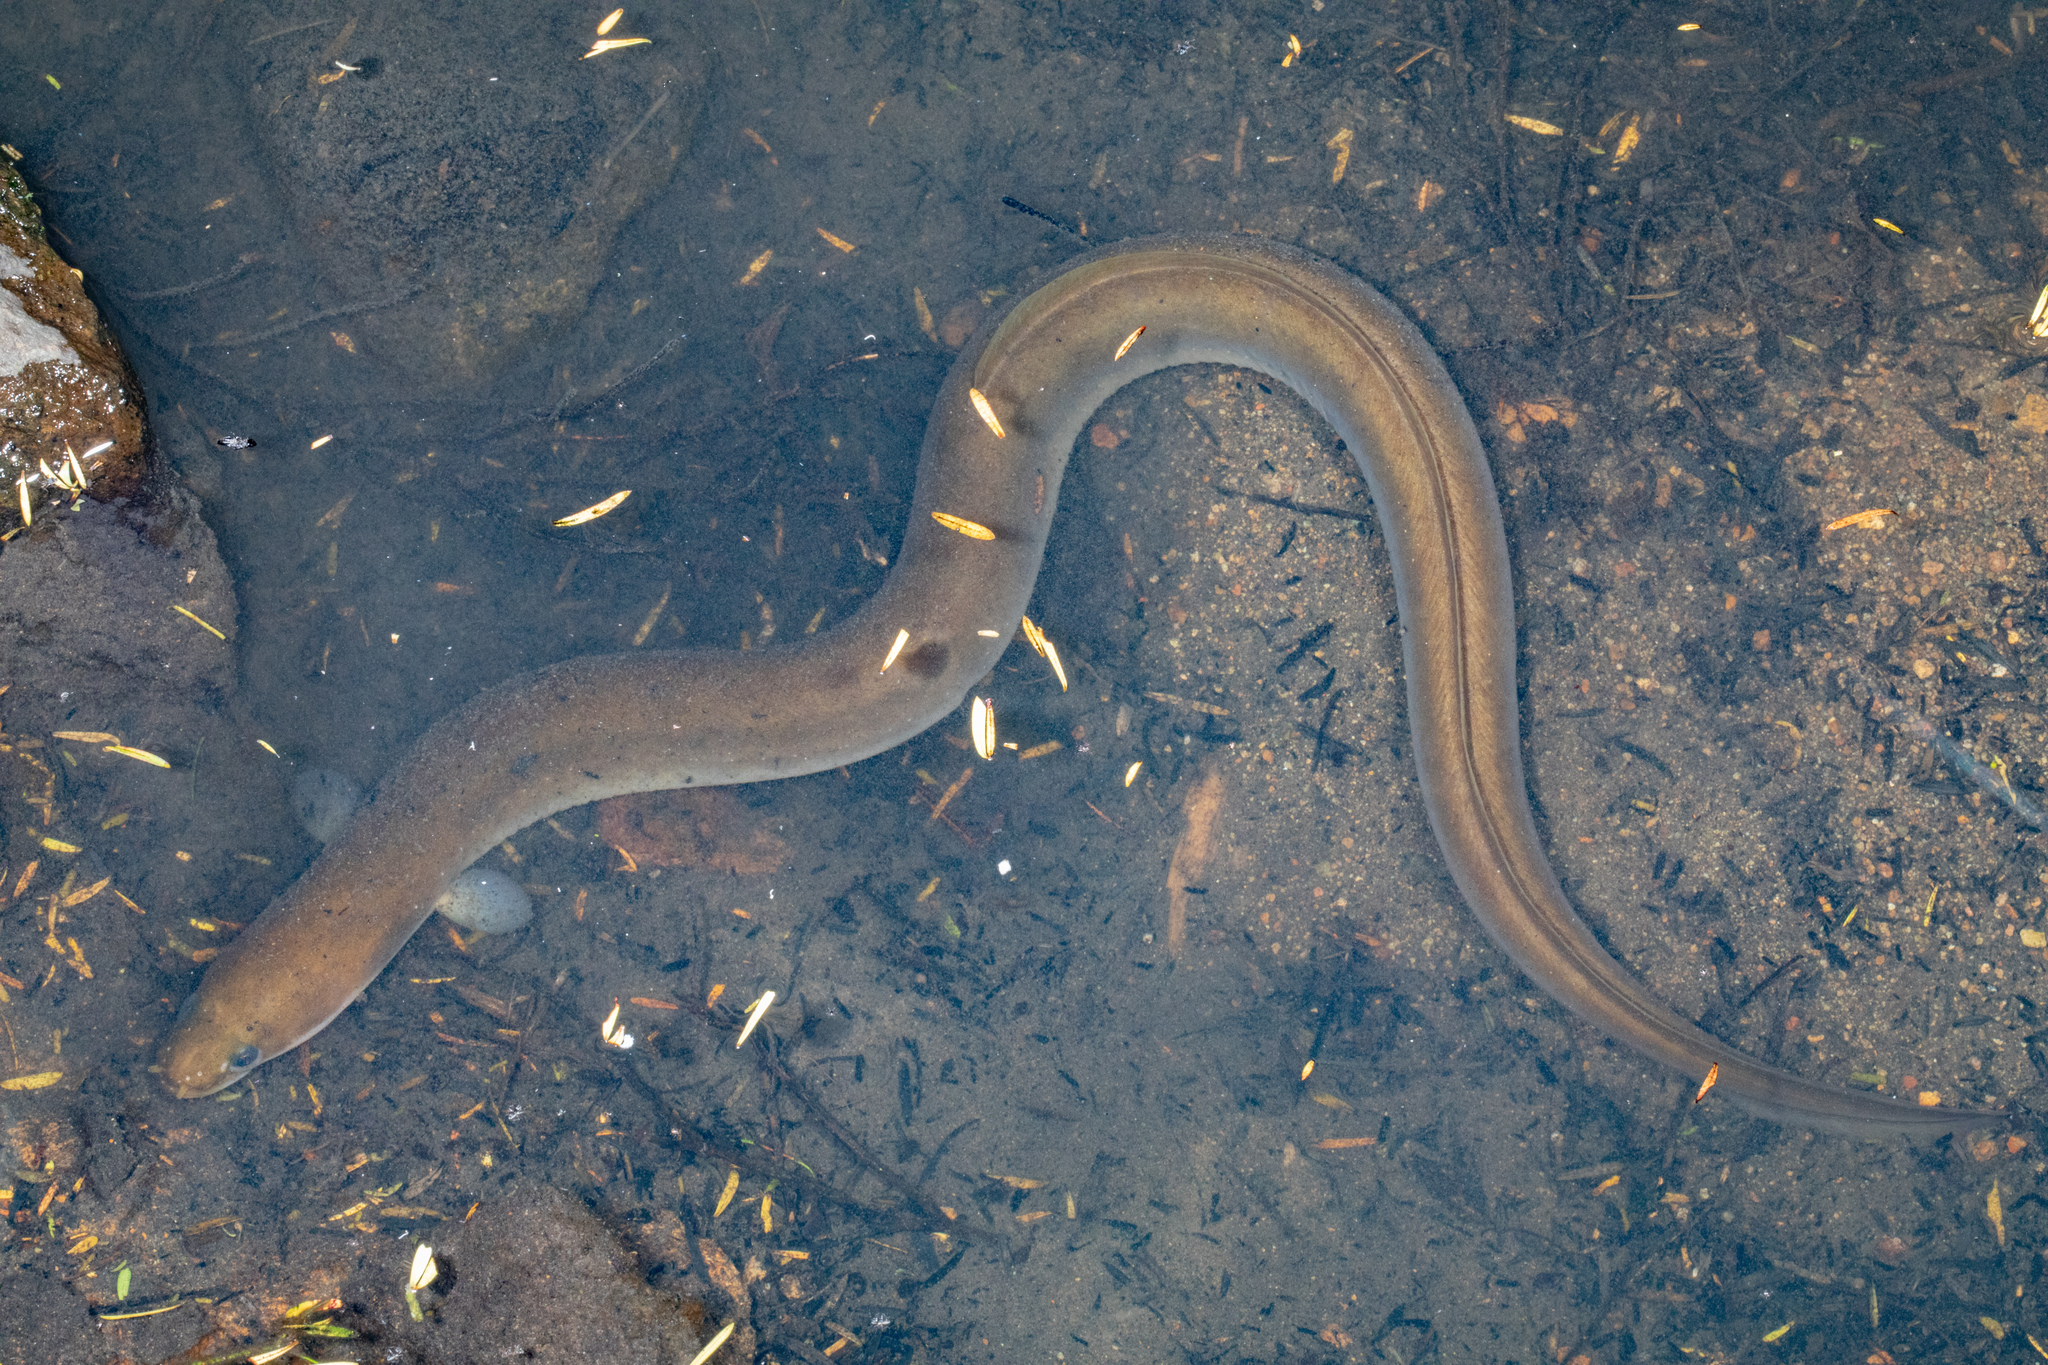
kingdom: Animalia
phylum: Chordata
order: Anguilliformes
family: Anguillidae
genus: Anguilla
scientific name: Anguilla australis
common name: Shortfin eel
